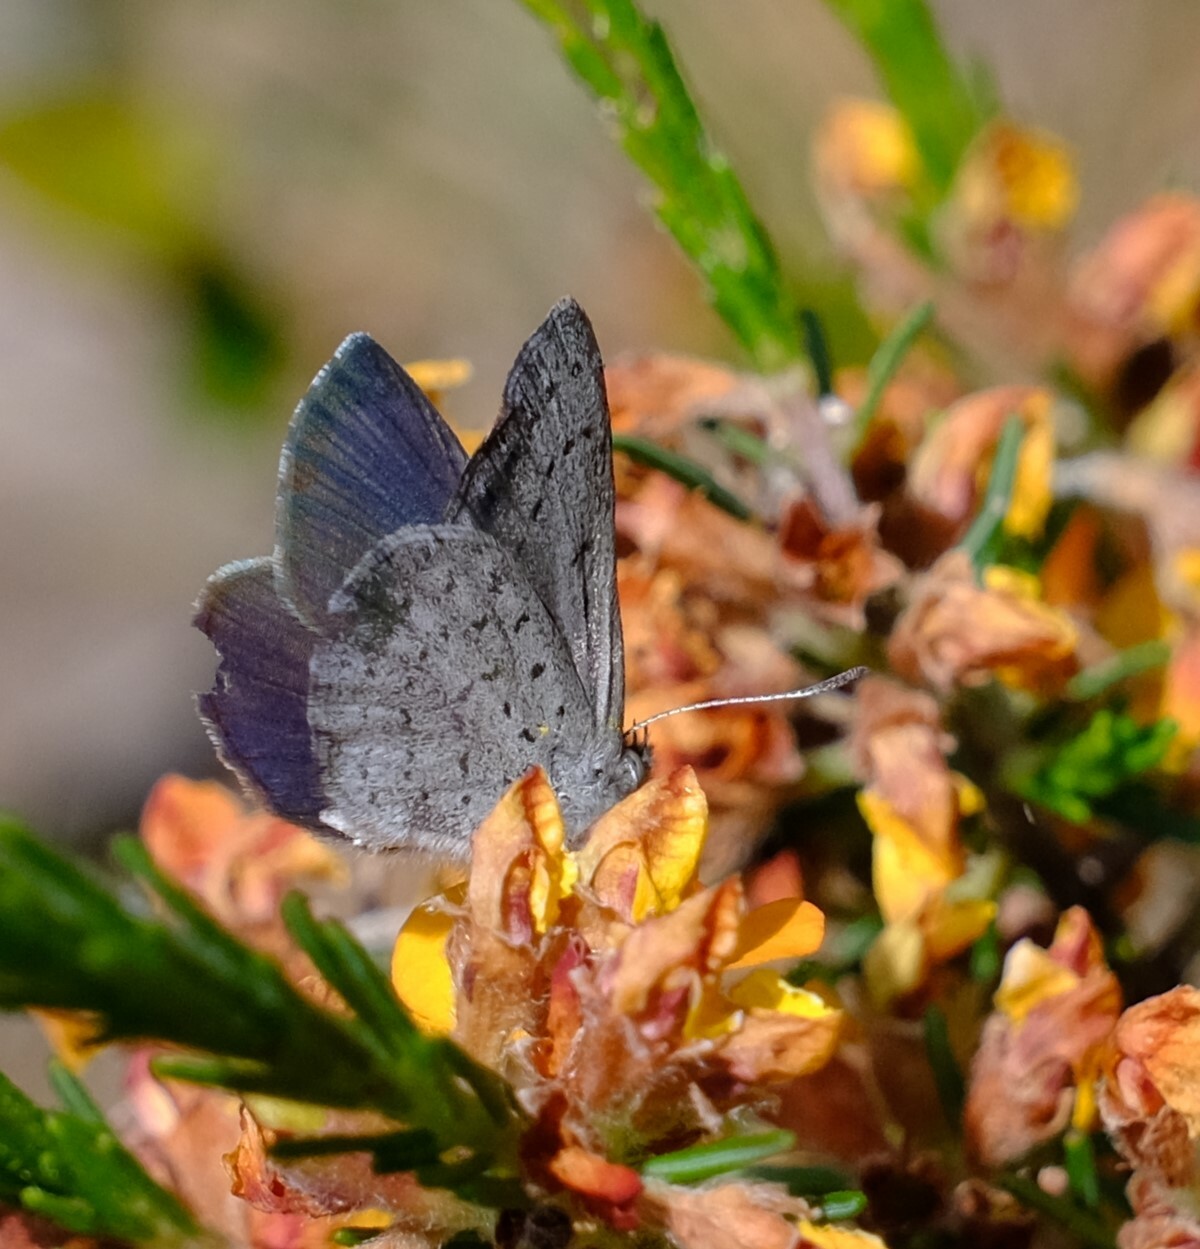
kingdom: Animalia
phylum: Arthropoda
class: Insecta
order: Lepidoptera
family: Lycaenidae
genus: Candalides
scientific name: Candalides
